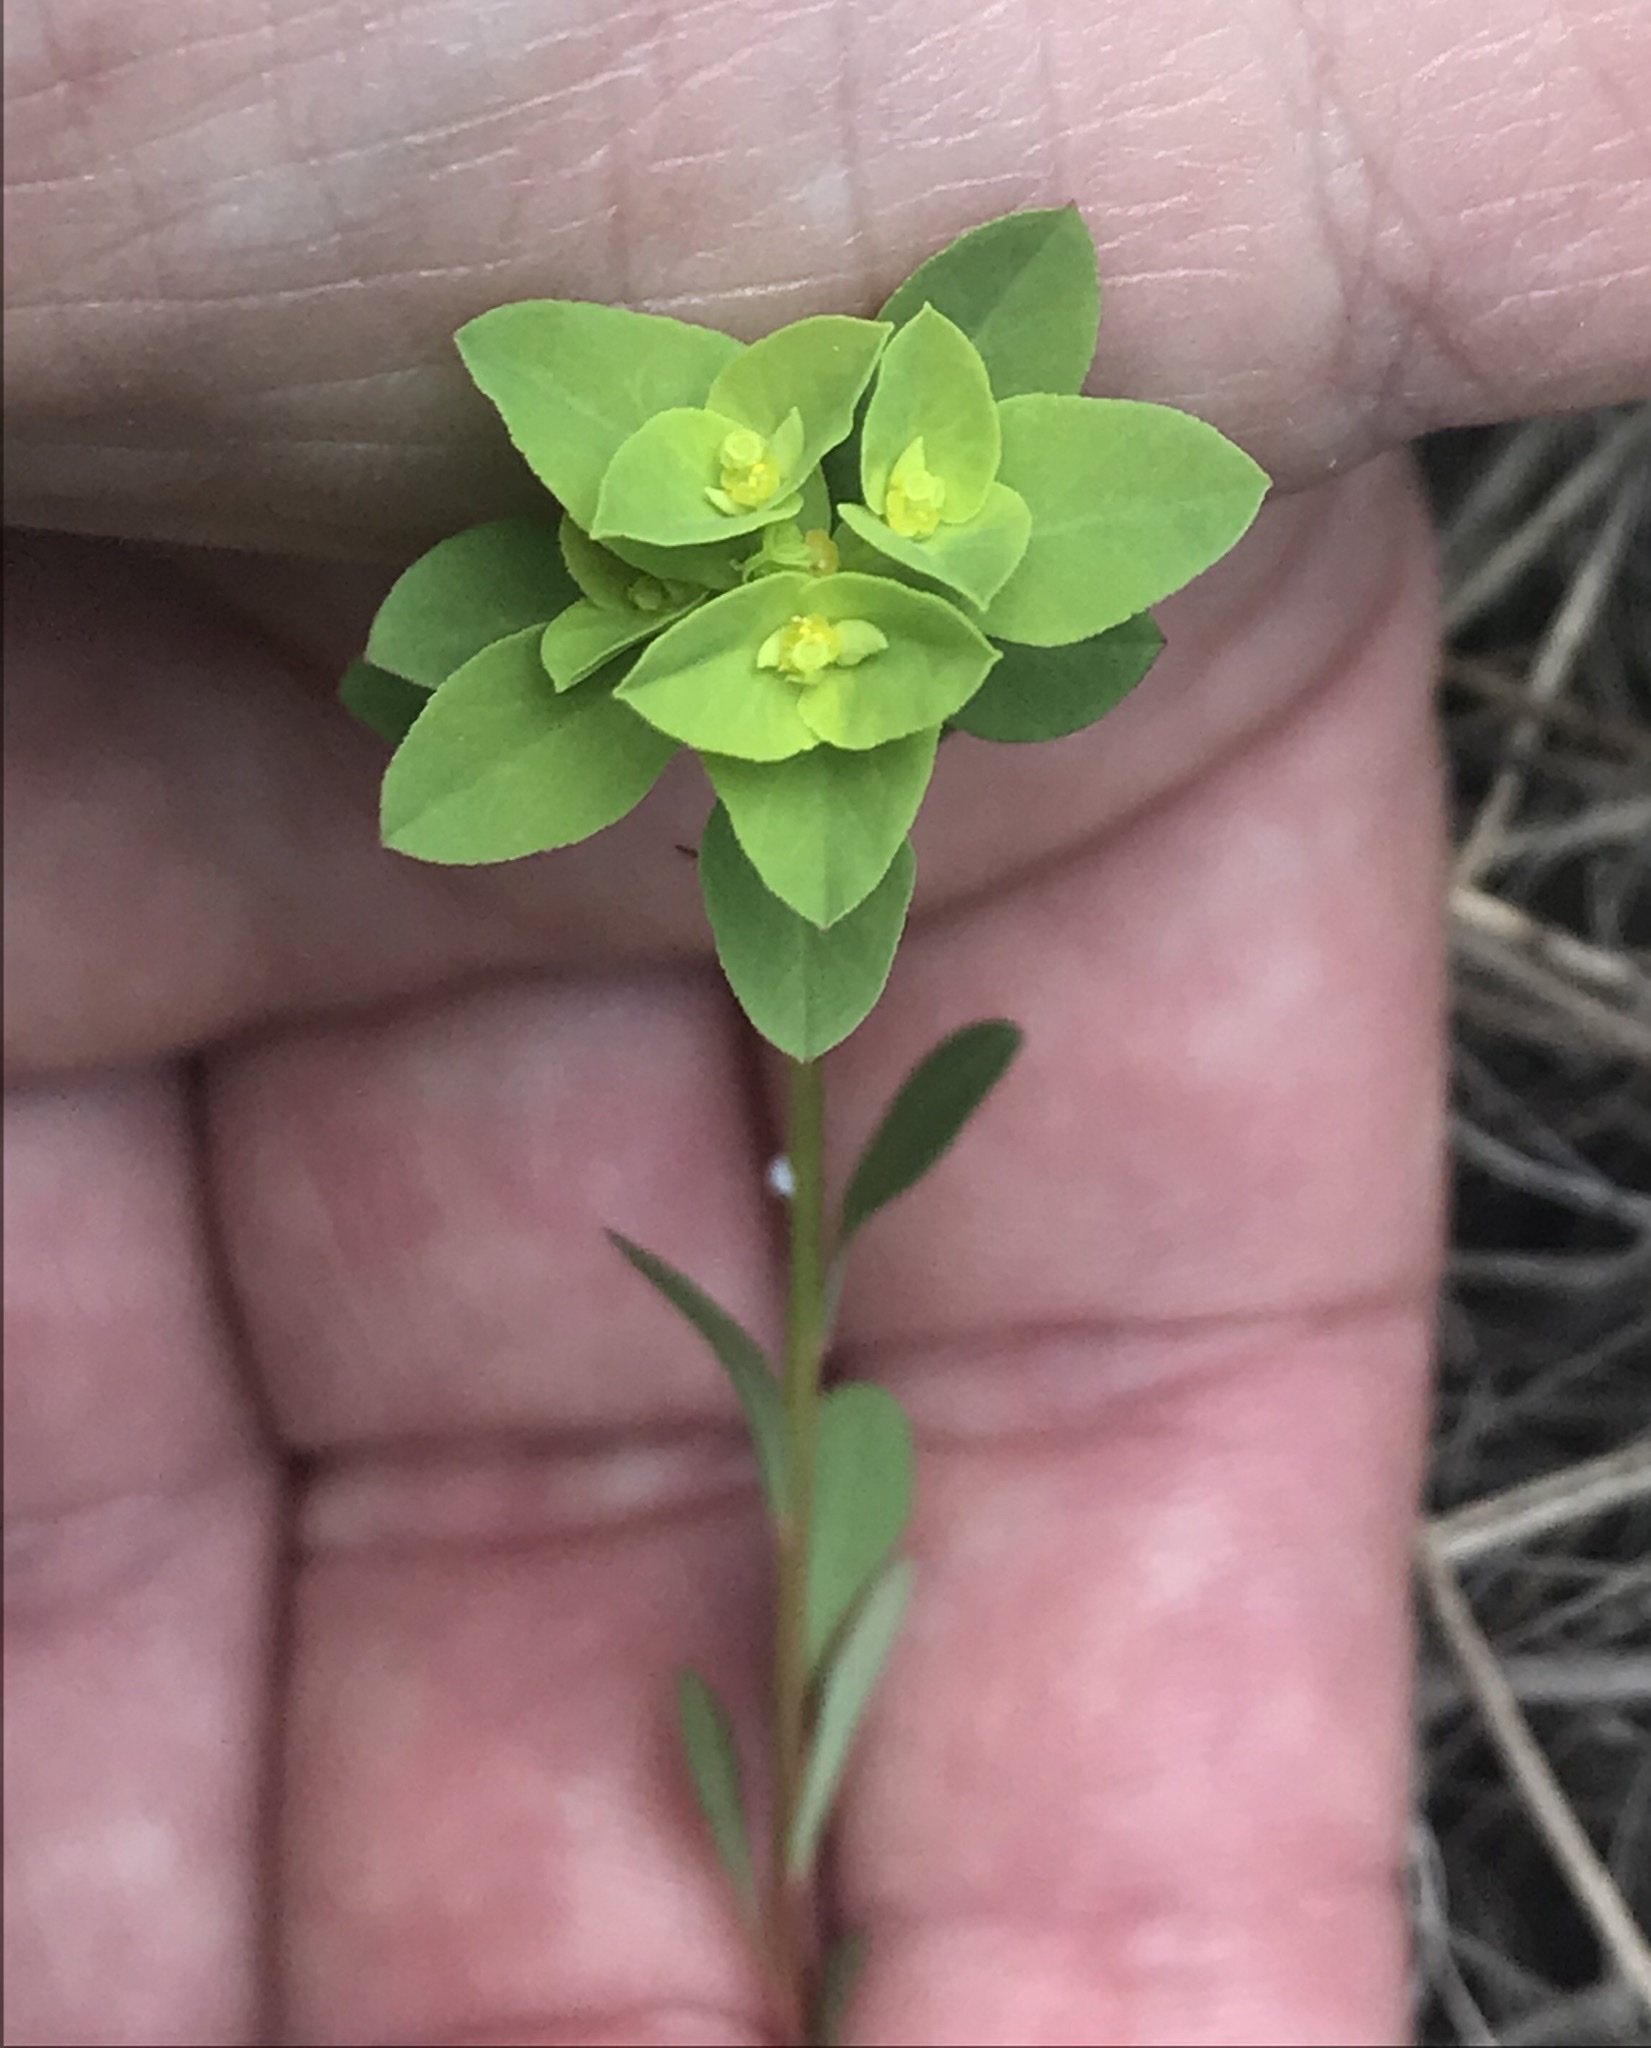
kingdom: Plantae
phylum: Tracheophyta
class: Magnoliopsida
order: Malpighiales
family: Euphorbiaceae
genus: Euphorbia
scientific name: Euphorbia spathulata
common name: Blunt spurge
